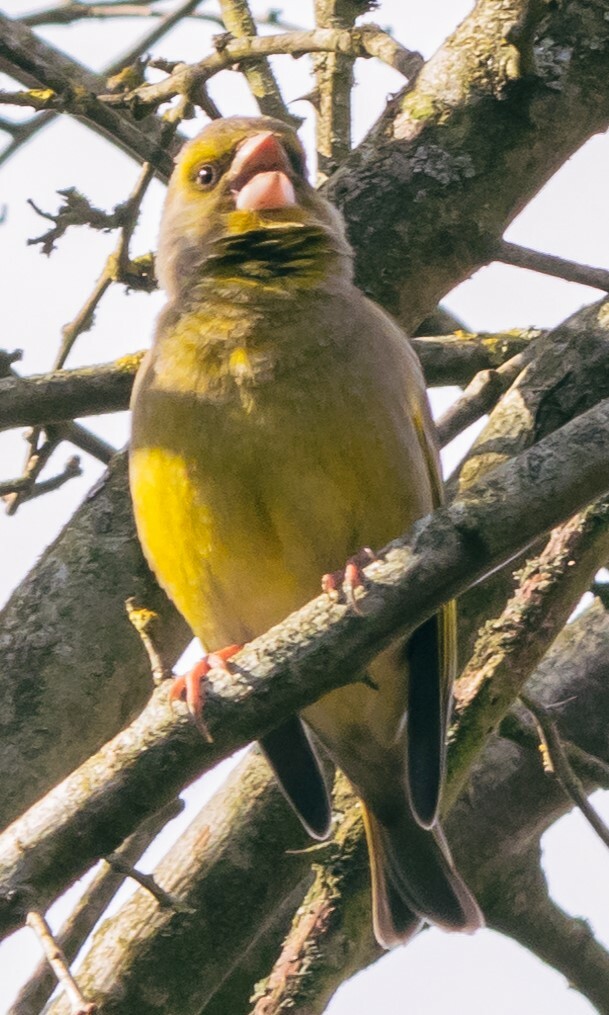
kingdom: Plantae
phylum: Tracheophyta
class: Liliopsida
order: Poales
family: Poaceae
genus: Chloris
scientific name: Chloris chloris
